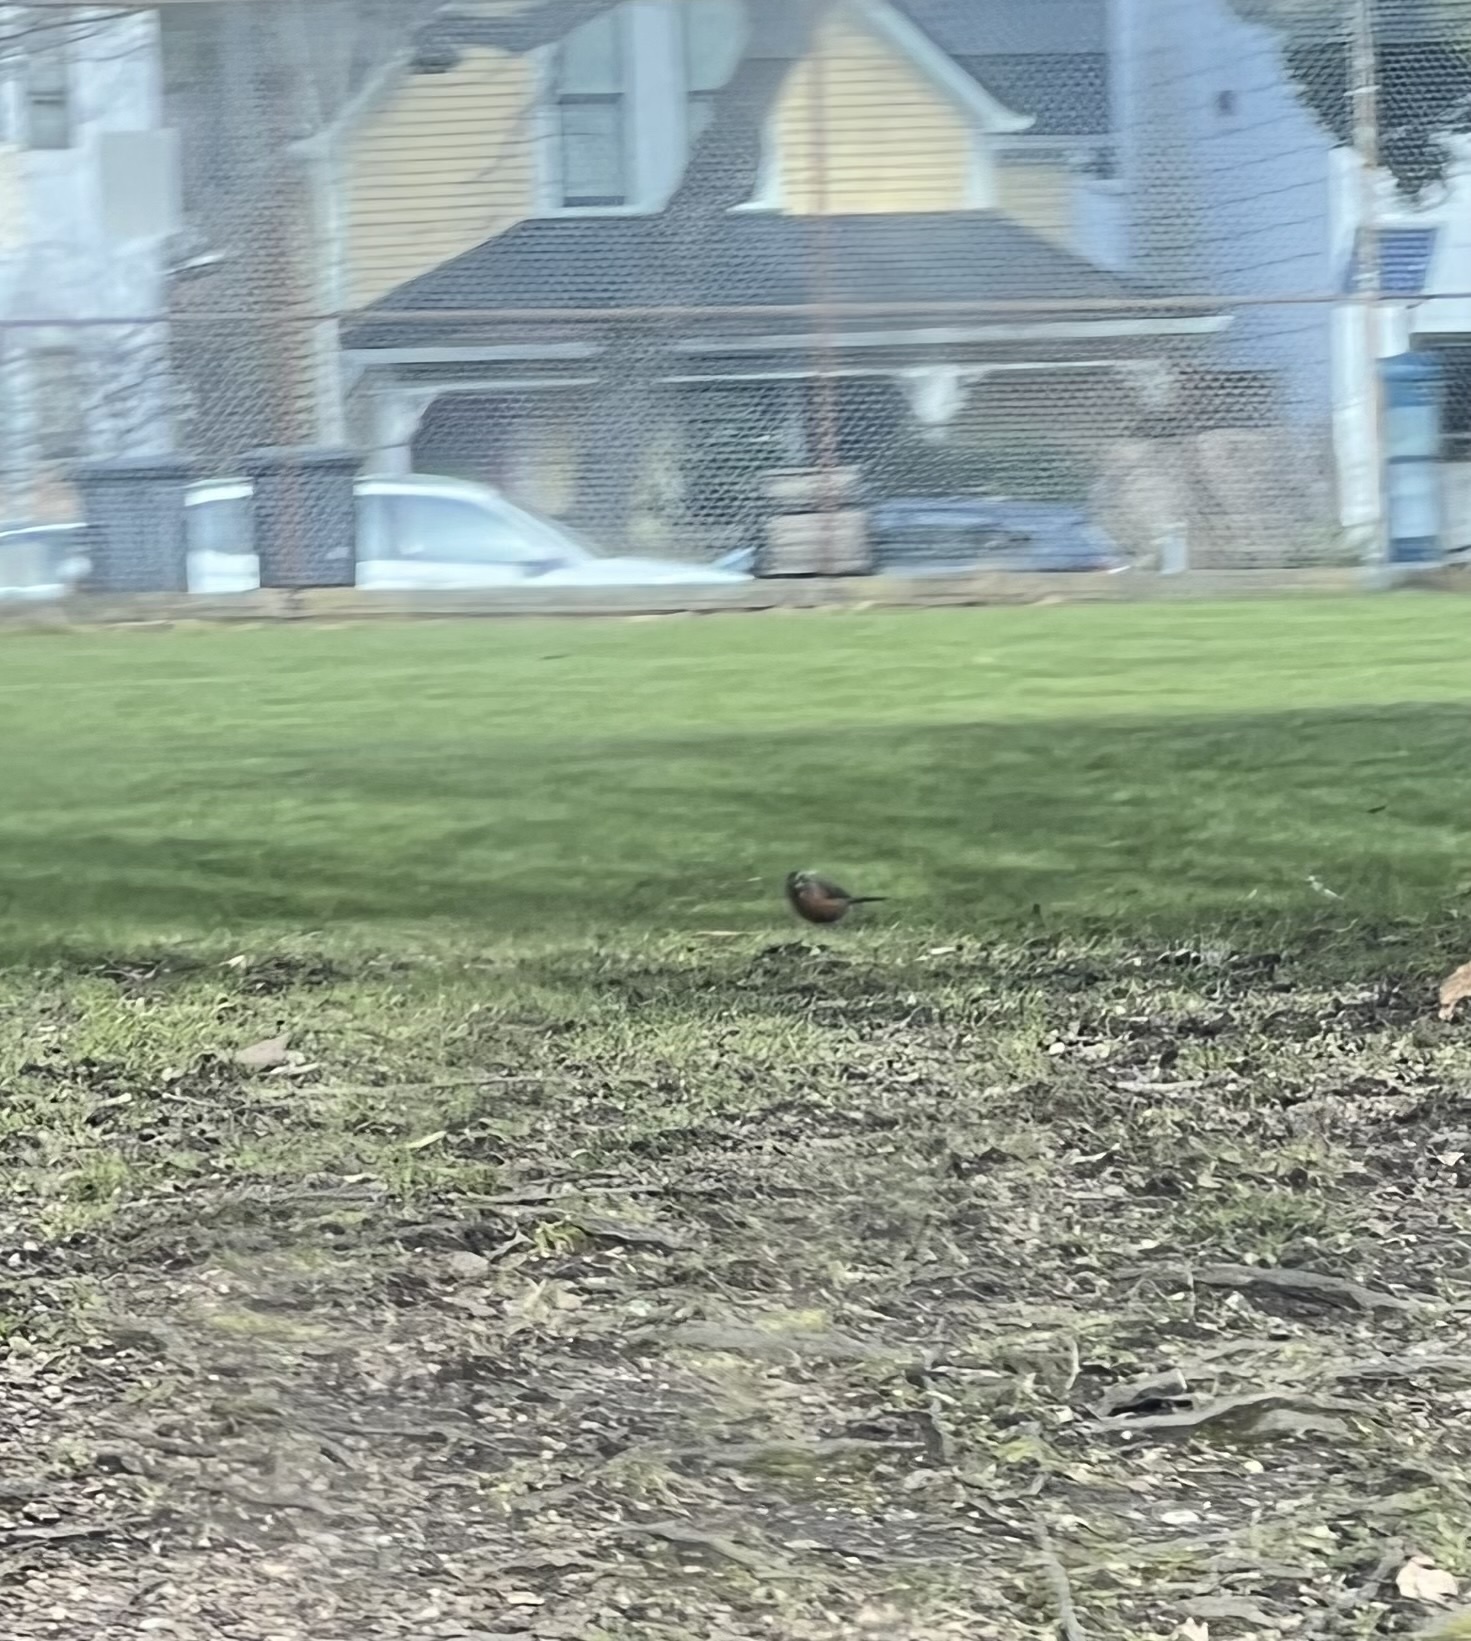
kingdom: Animalia
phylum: Chordata
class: Aves
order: Passeriformes
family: Turdidae
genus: Turdus
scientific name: Turdus migratorius
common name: American robin
